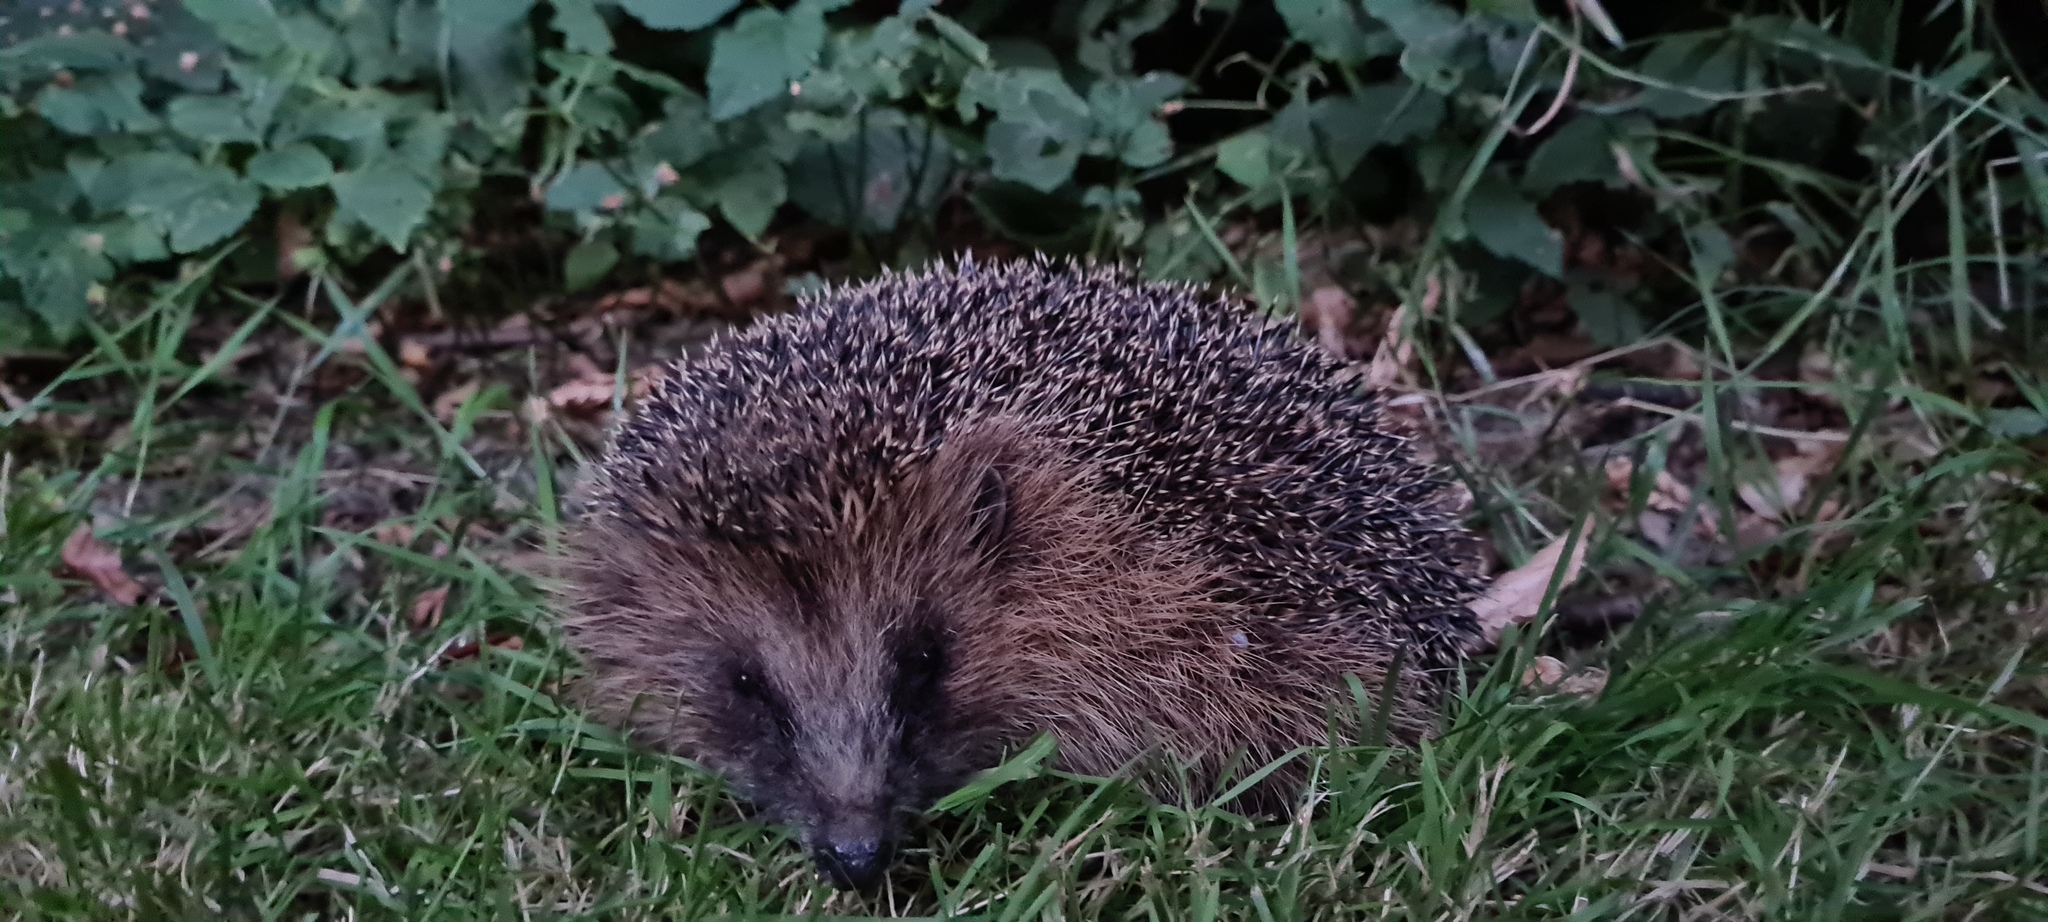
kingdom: Animalia
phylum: Chordata
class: Mammalia
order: Erinaceomorpha
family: Erinaceidae
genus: Erinaceus
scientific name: Erinaceus europaeus
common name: West european hedgehog
